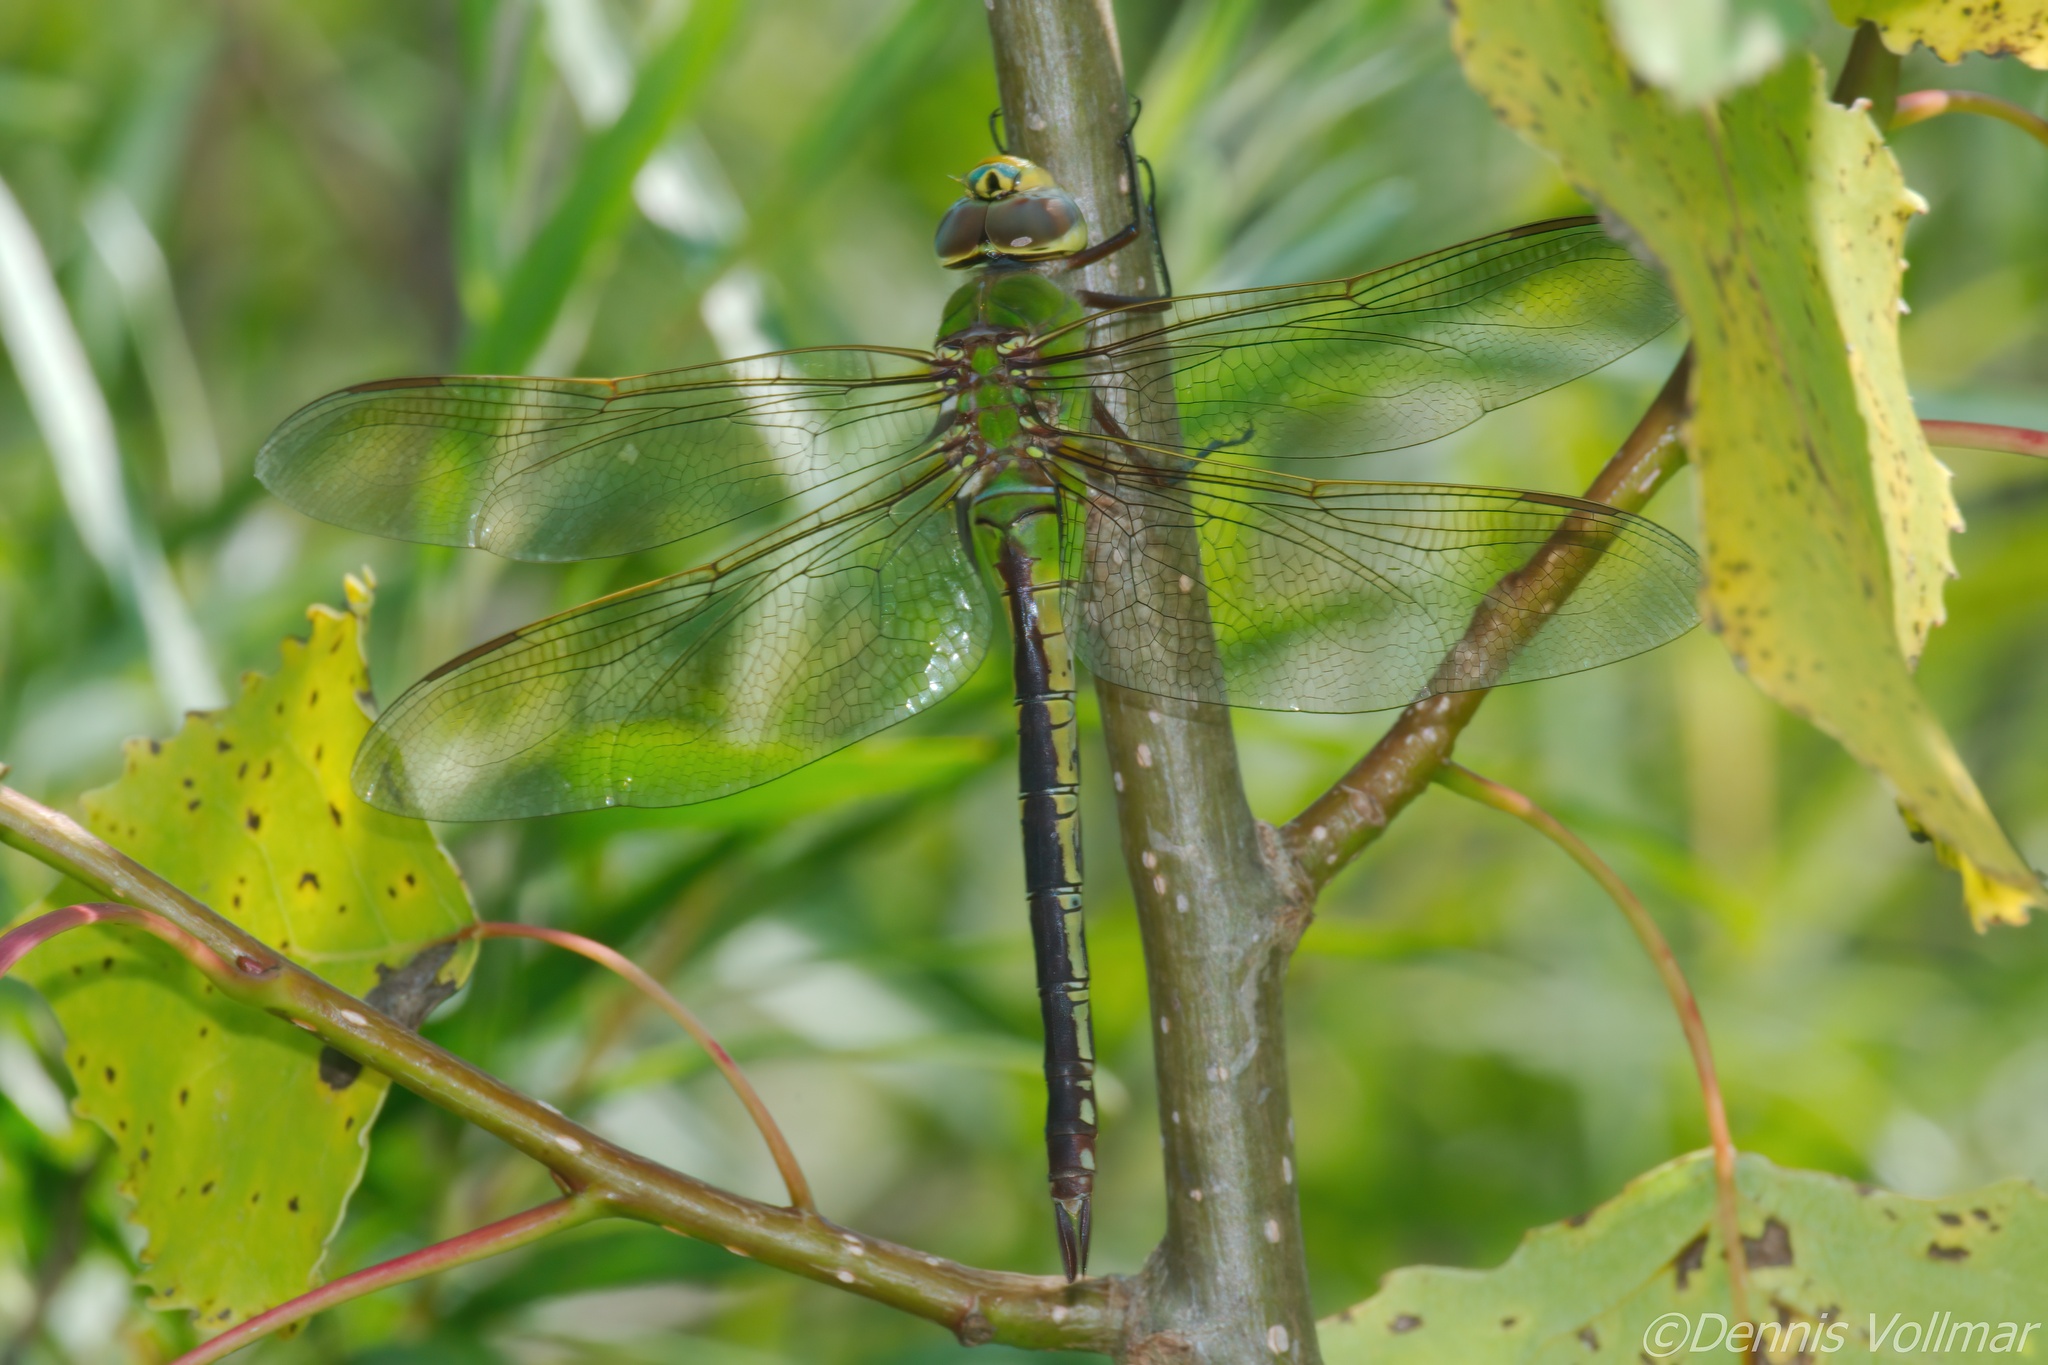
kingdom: Animalia
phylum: Arthropoda
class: Insecta
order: Odonata
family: Aeshnidae
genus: Anax
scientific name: Anax junius
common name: Common green darner
